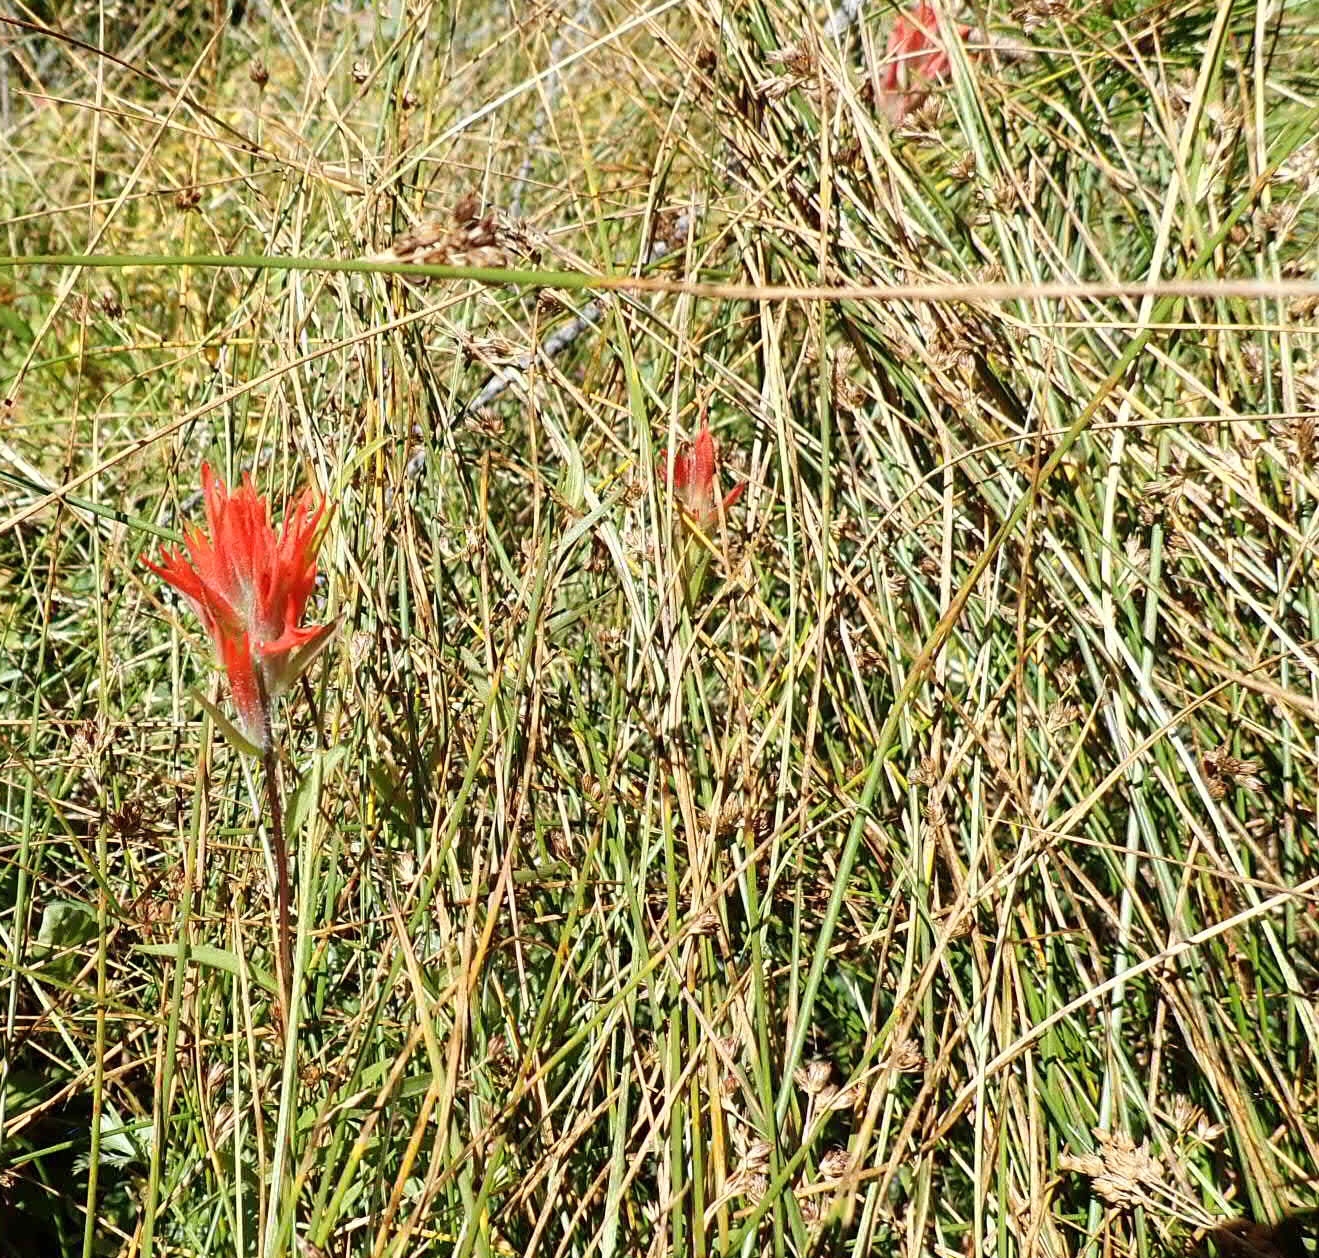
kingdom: Plantae
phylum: Tracheophyta
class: Magnoliopsida
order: Lamiales
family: Orobanchaceae
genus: Castilleja
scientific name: Castilleja miniata
